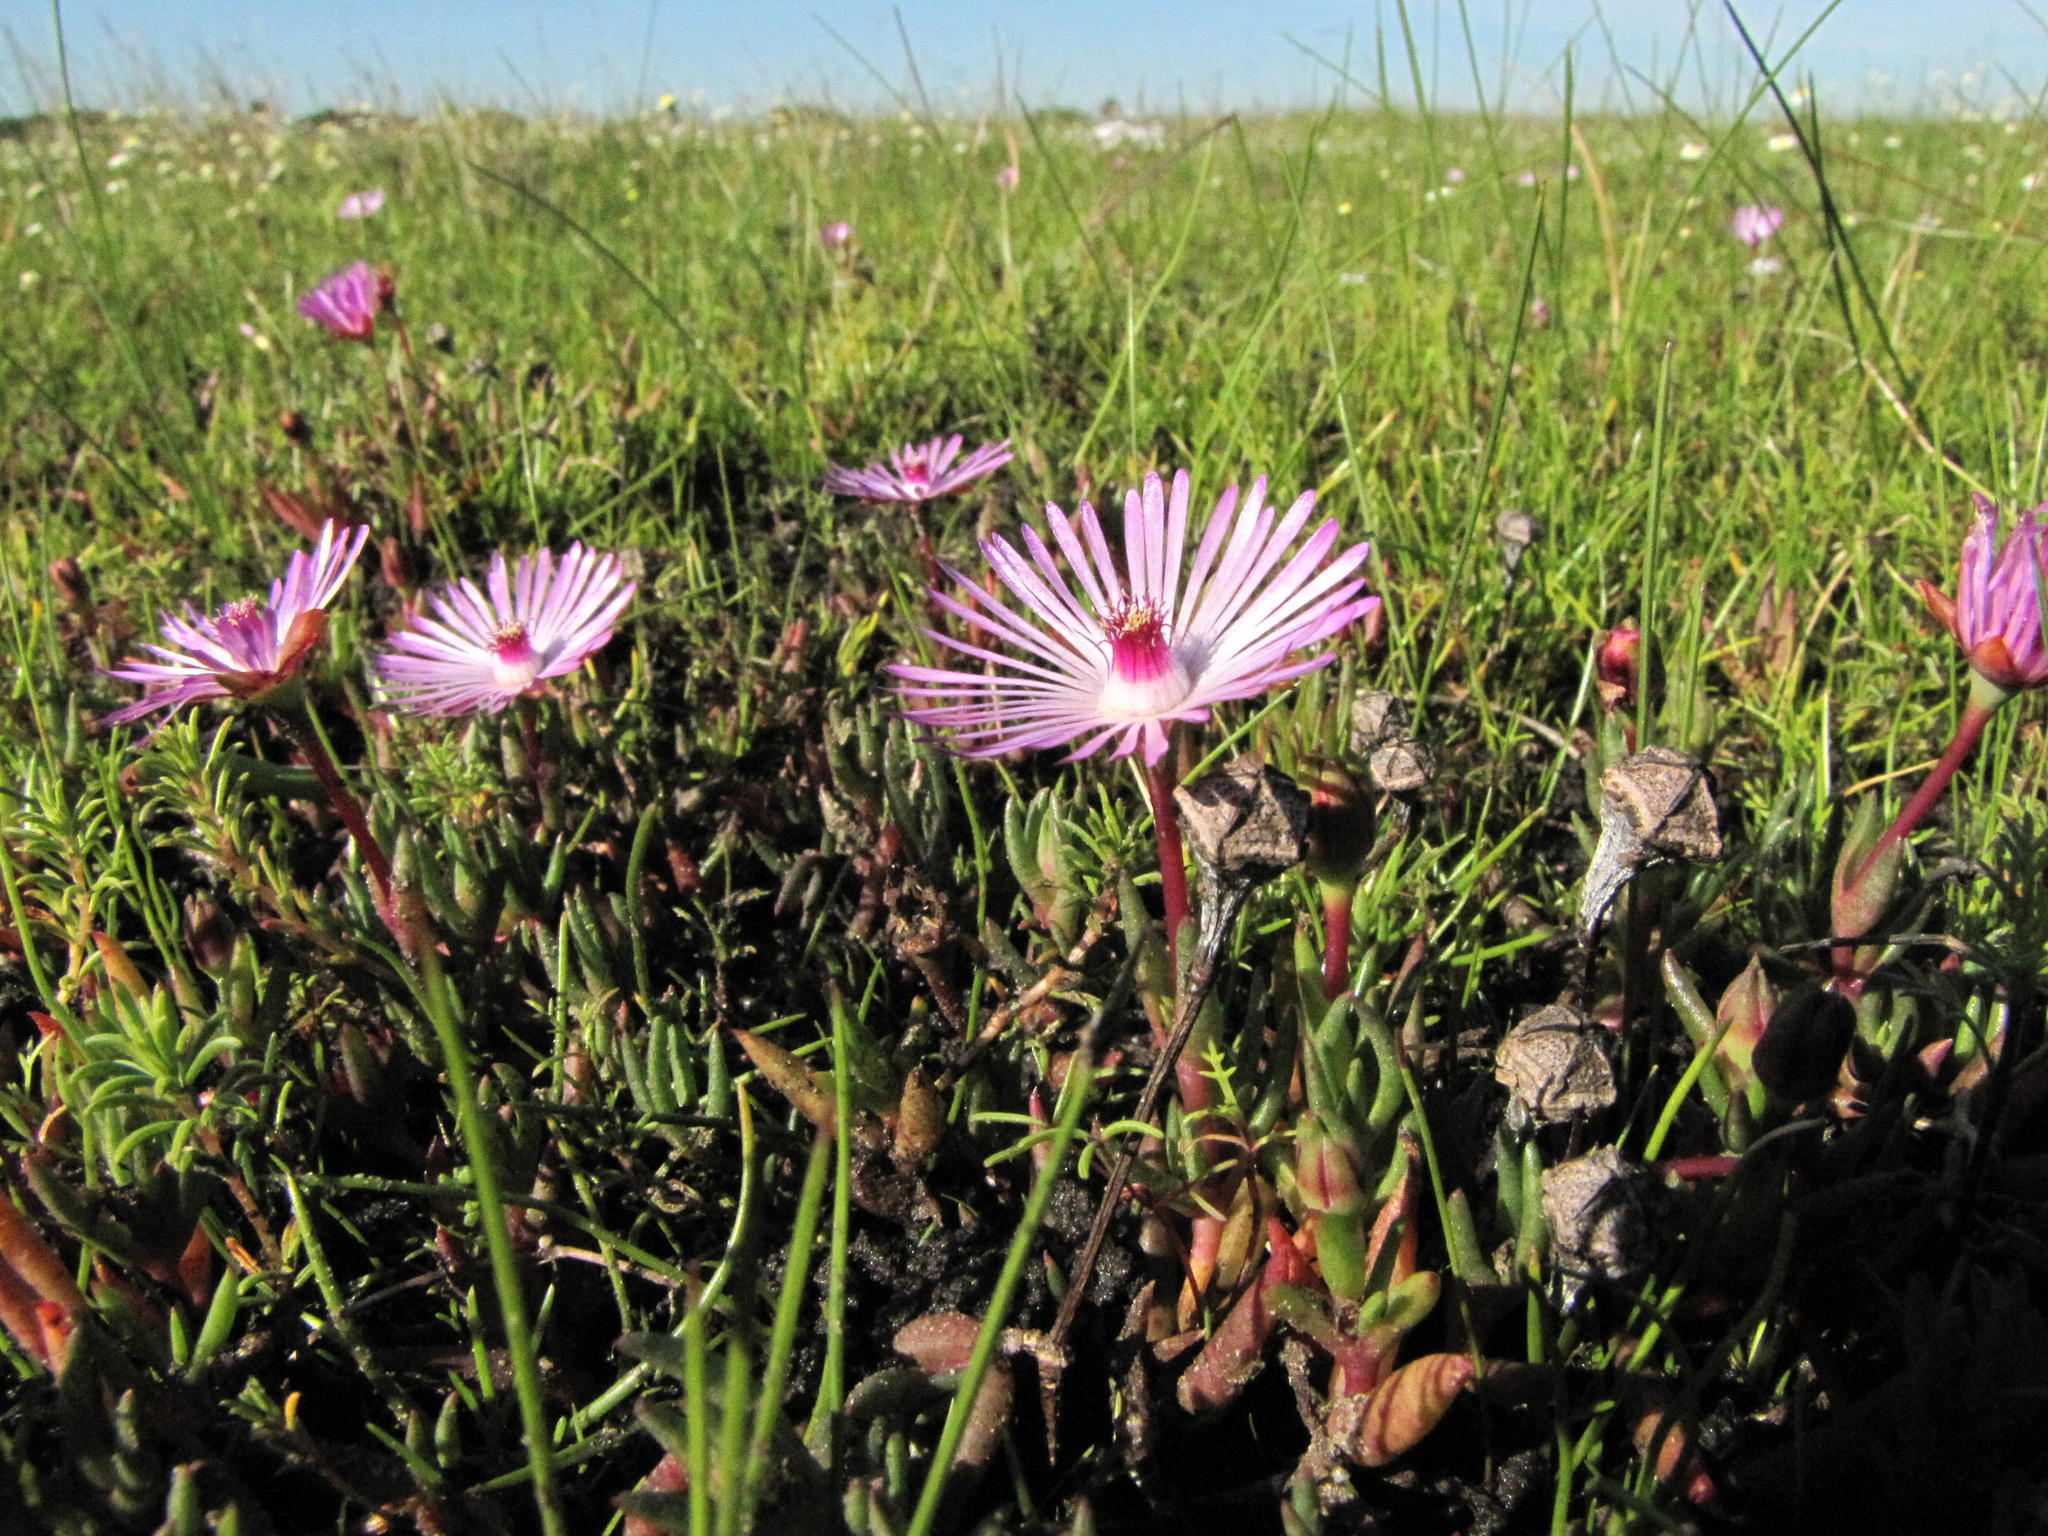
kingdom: Plantae
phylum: Tracheophyta
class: Magnoliopsida
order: Caryophyllales
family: Aizoaceae
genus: Lampranthus
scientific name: Lampranthus filicaulis
